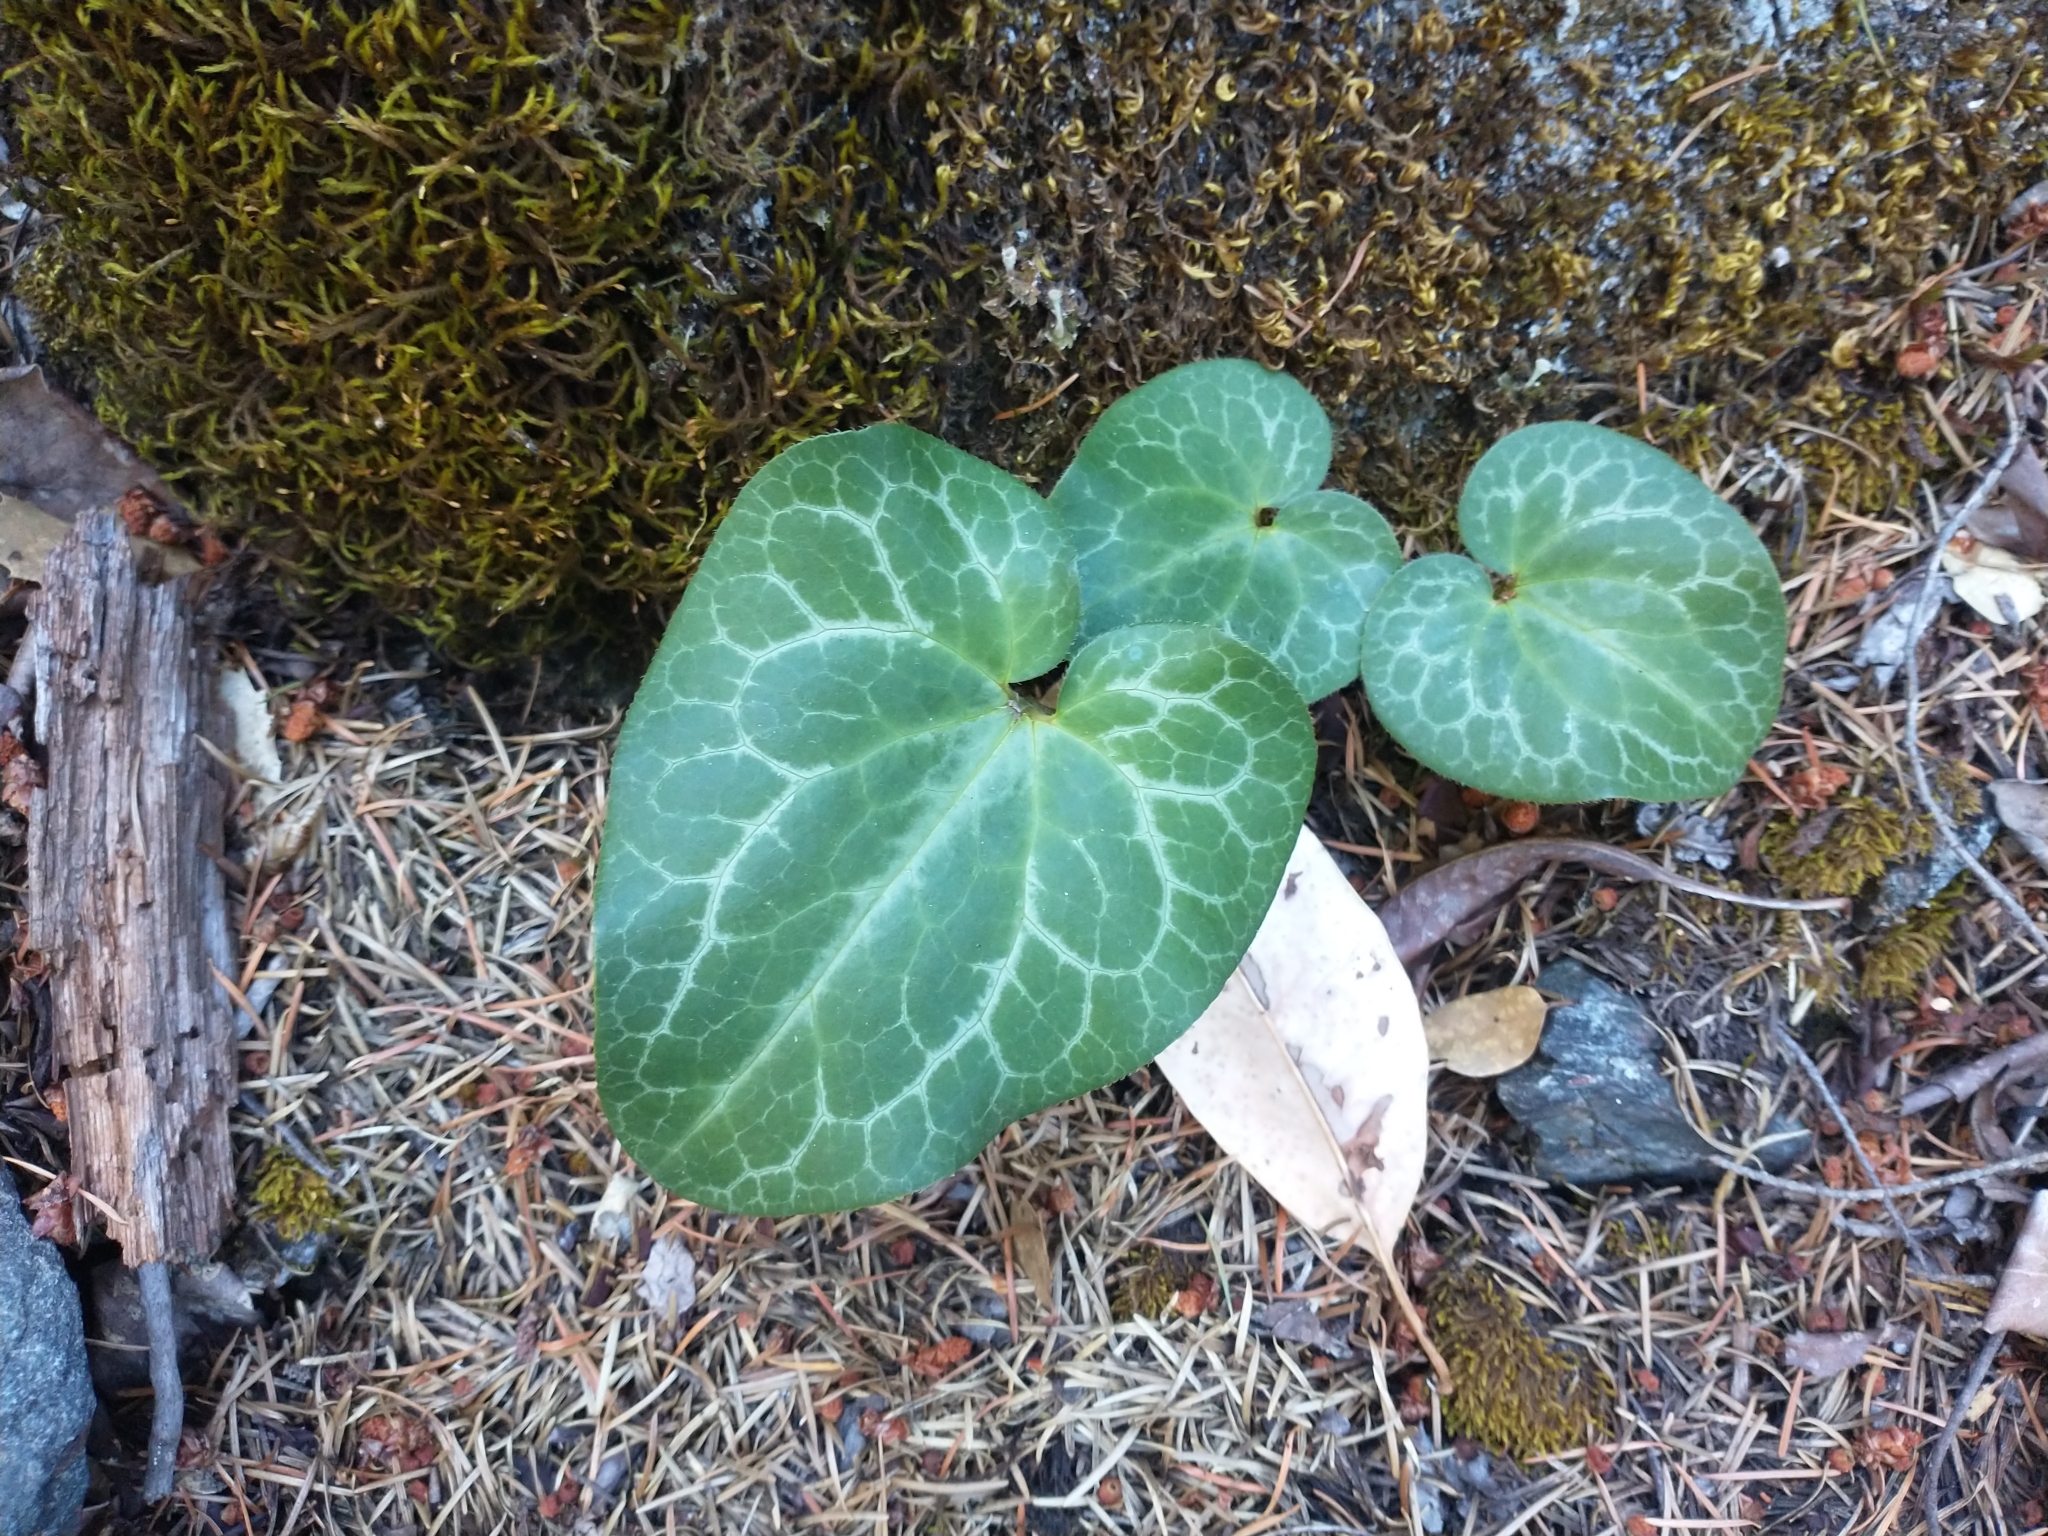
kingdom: Plantae
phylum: Tracheophyta
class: Magnoliopsida
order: Piperales
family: Aristolochiaceae
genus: Asarum
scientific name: Asarum hartwegii
